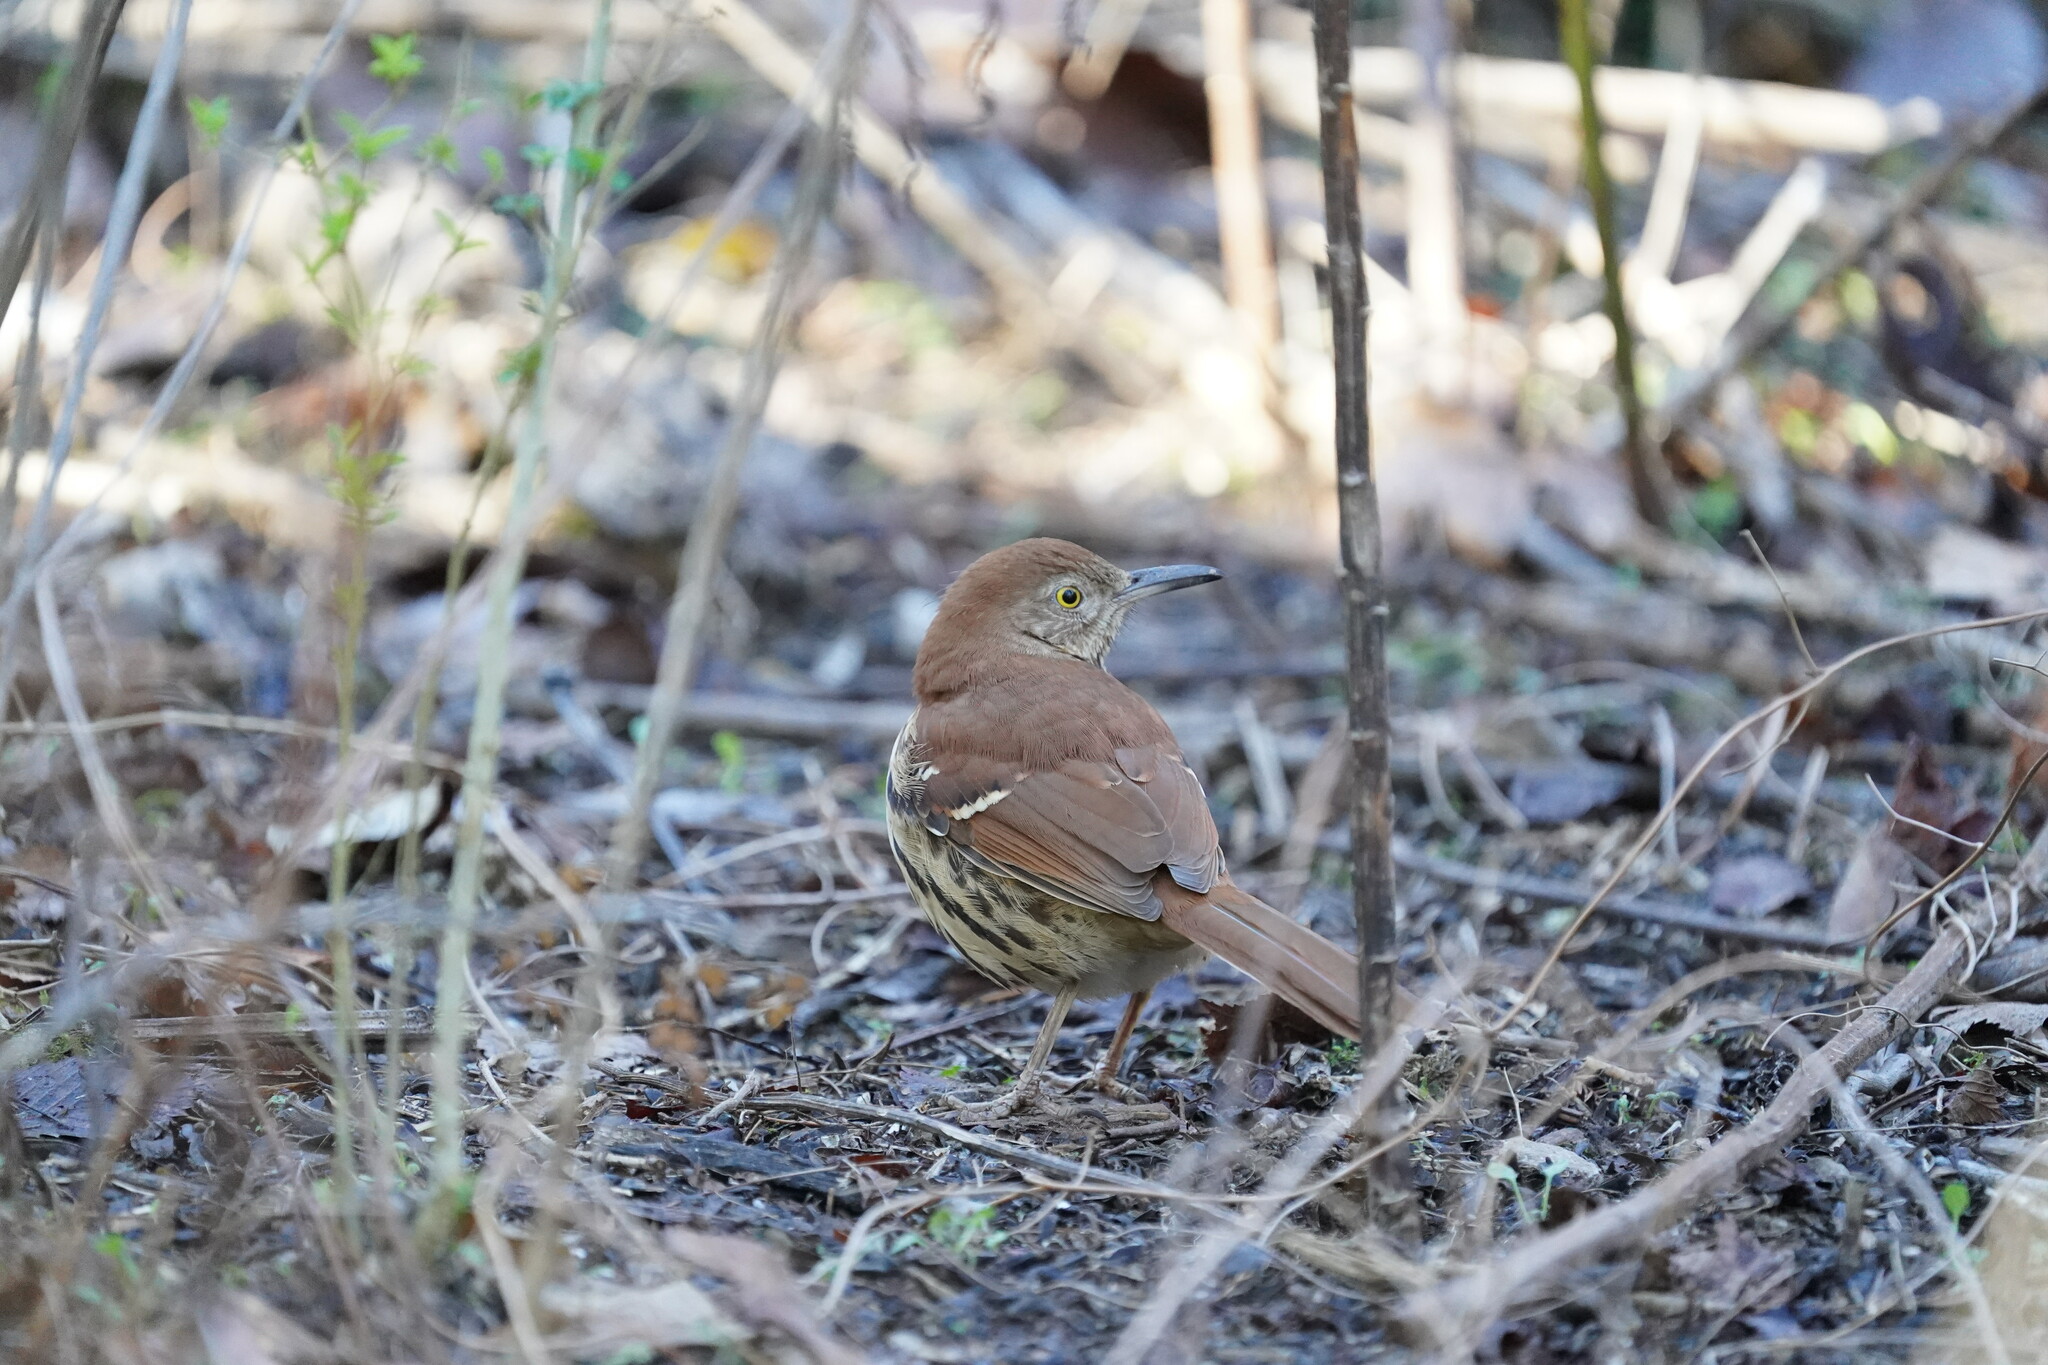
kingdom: Animalia
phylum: Chordata
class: Aves
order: Passeriformes
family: Mimidae
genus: Toxostoma
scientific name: Toxostoma rufum
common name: Brown thrasher
